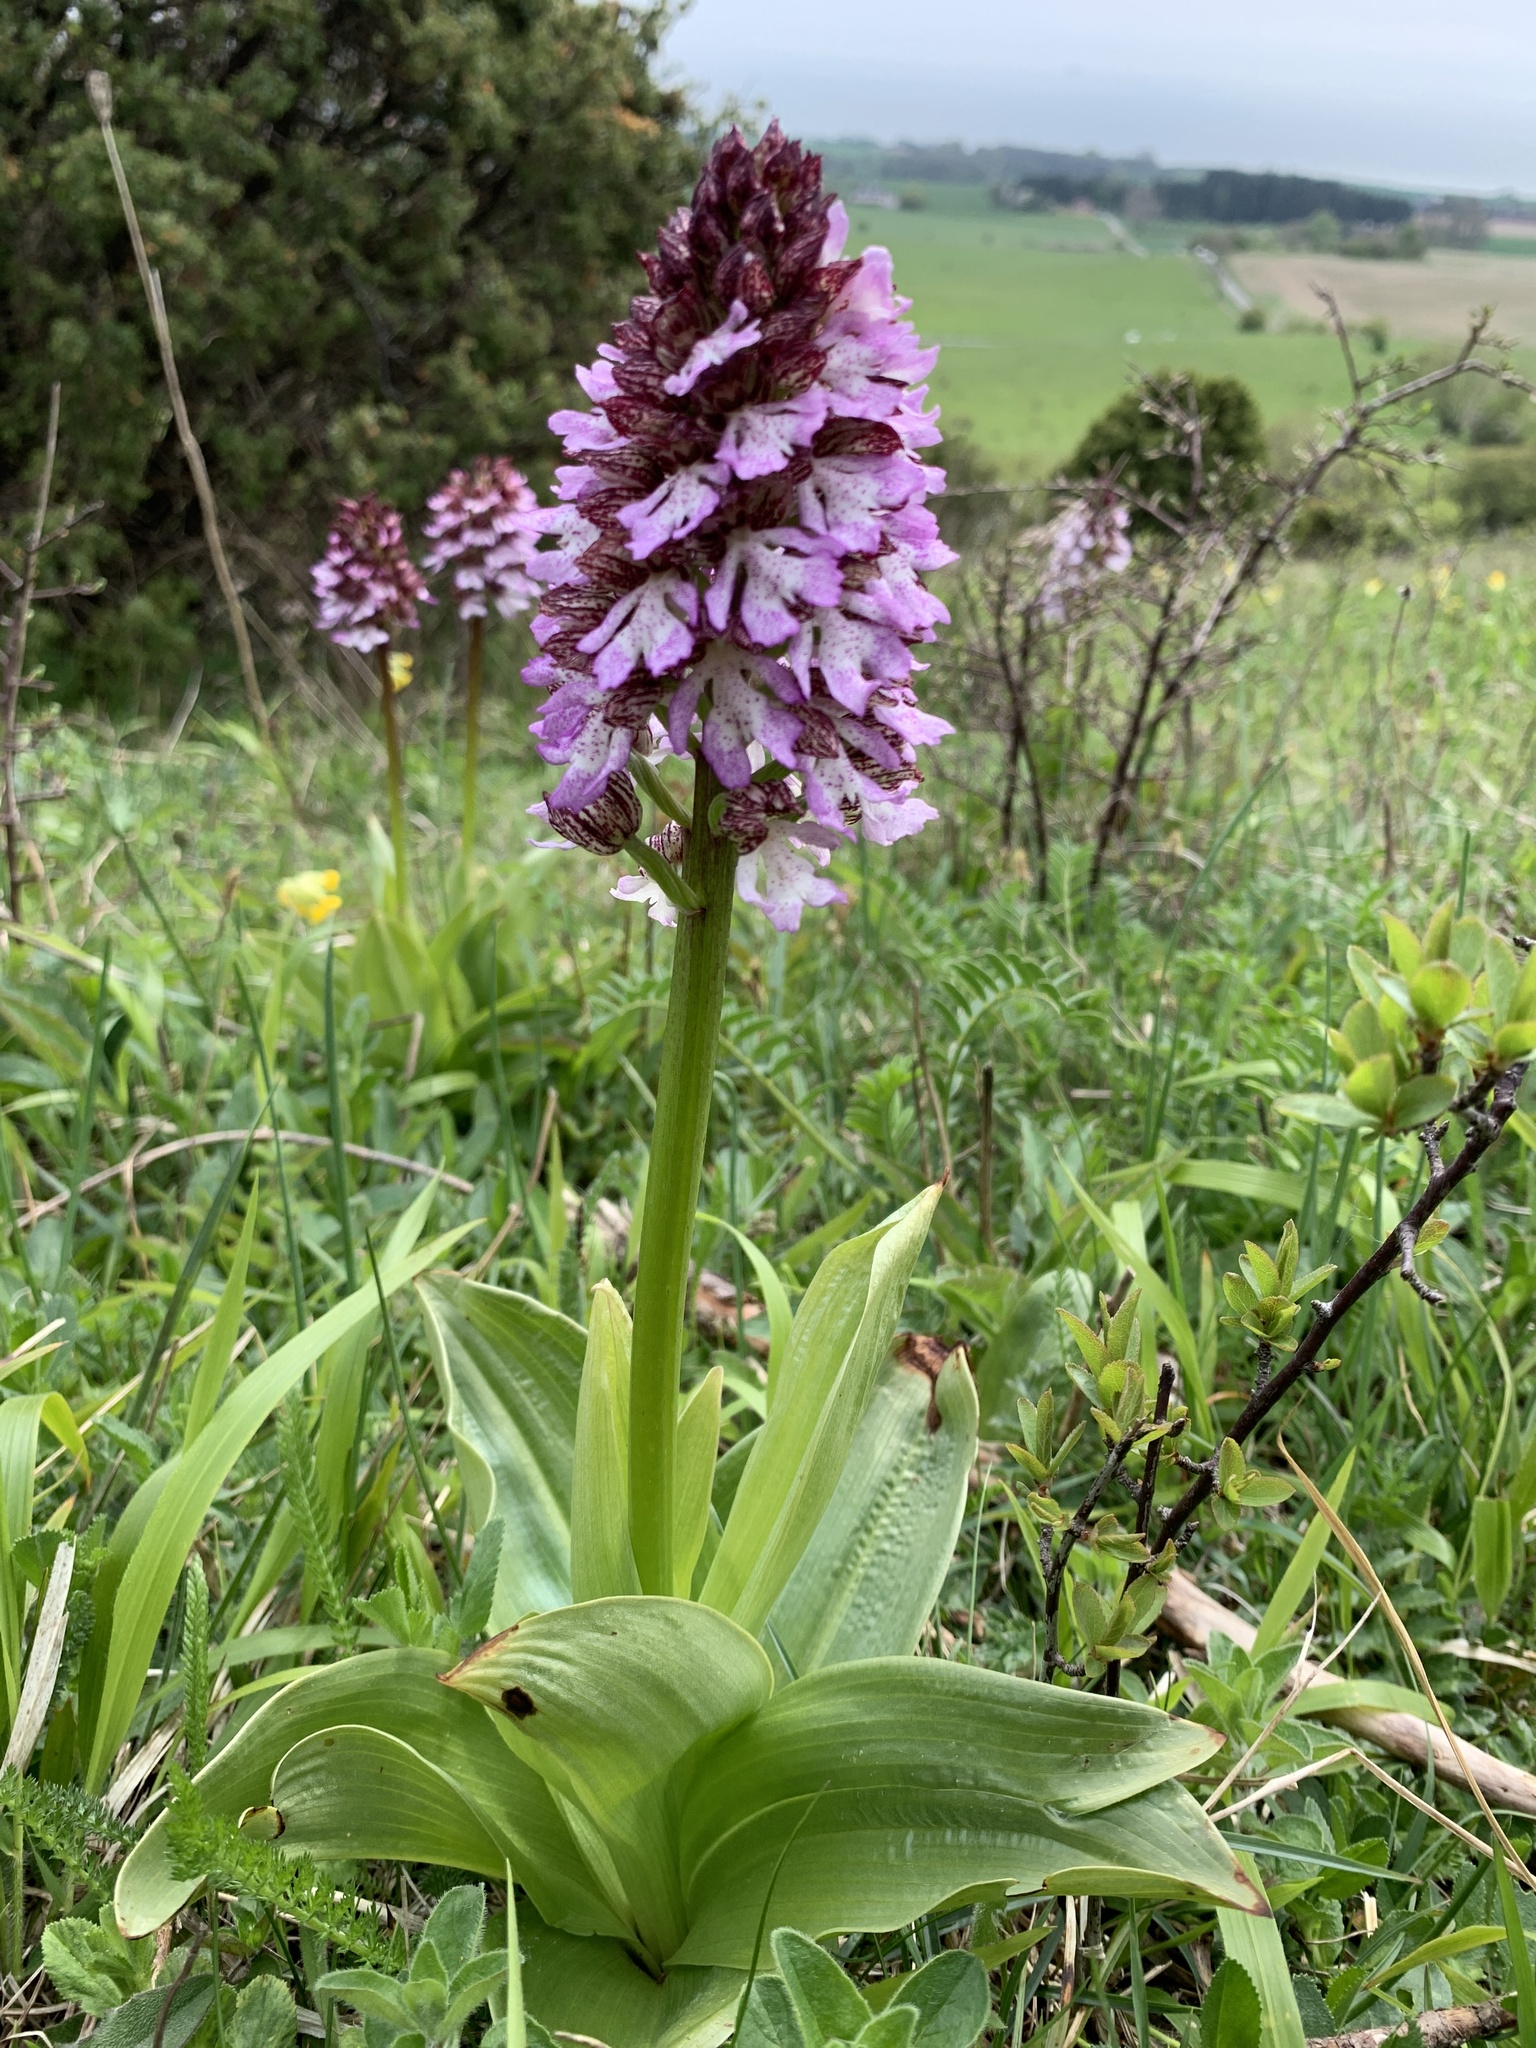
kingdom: Plantae
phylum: Tracheophyta
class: Liliopsida
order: Asparagales
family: Orchidaceae
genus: Orchis
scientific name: Orchis purpurea
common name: Lady orchid
